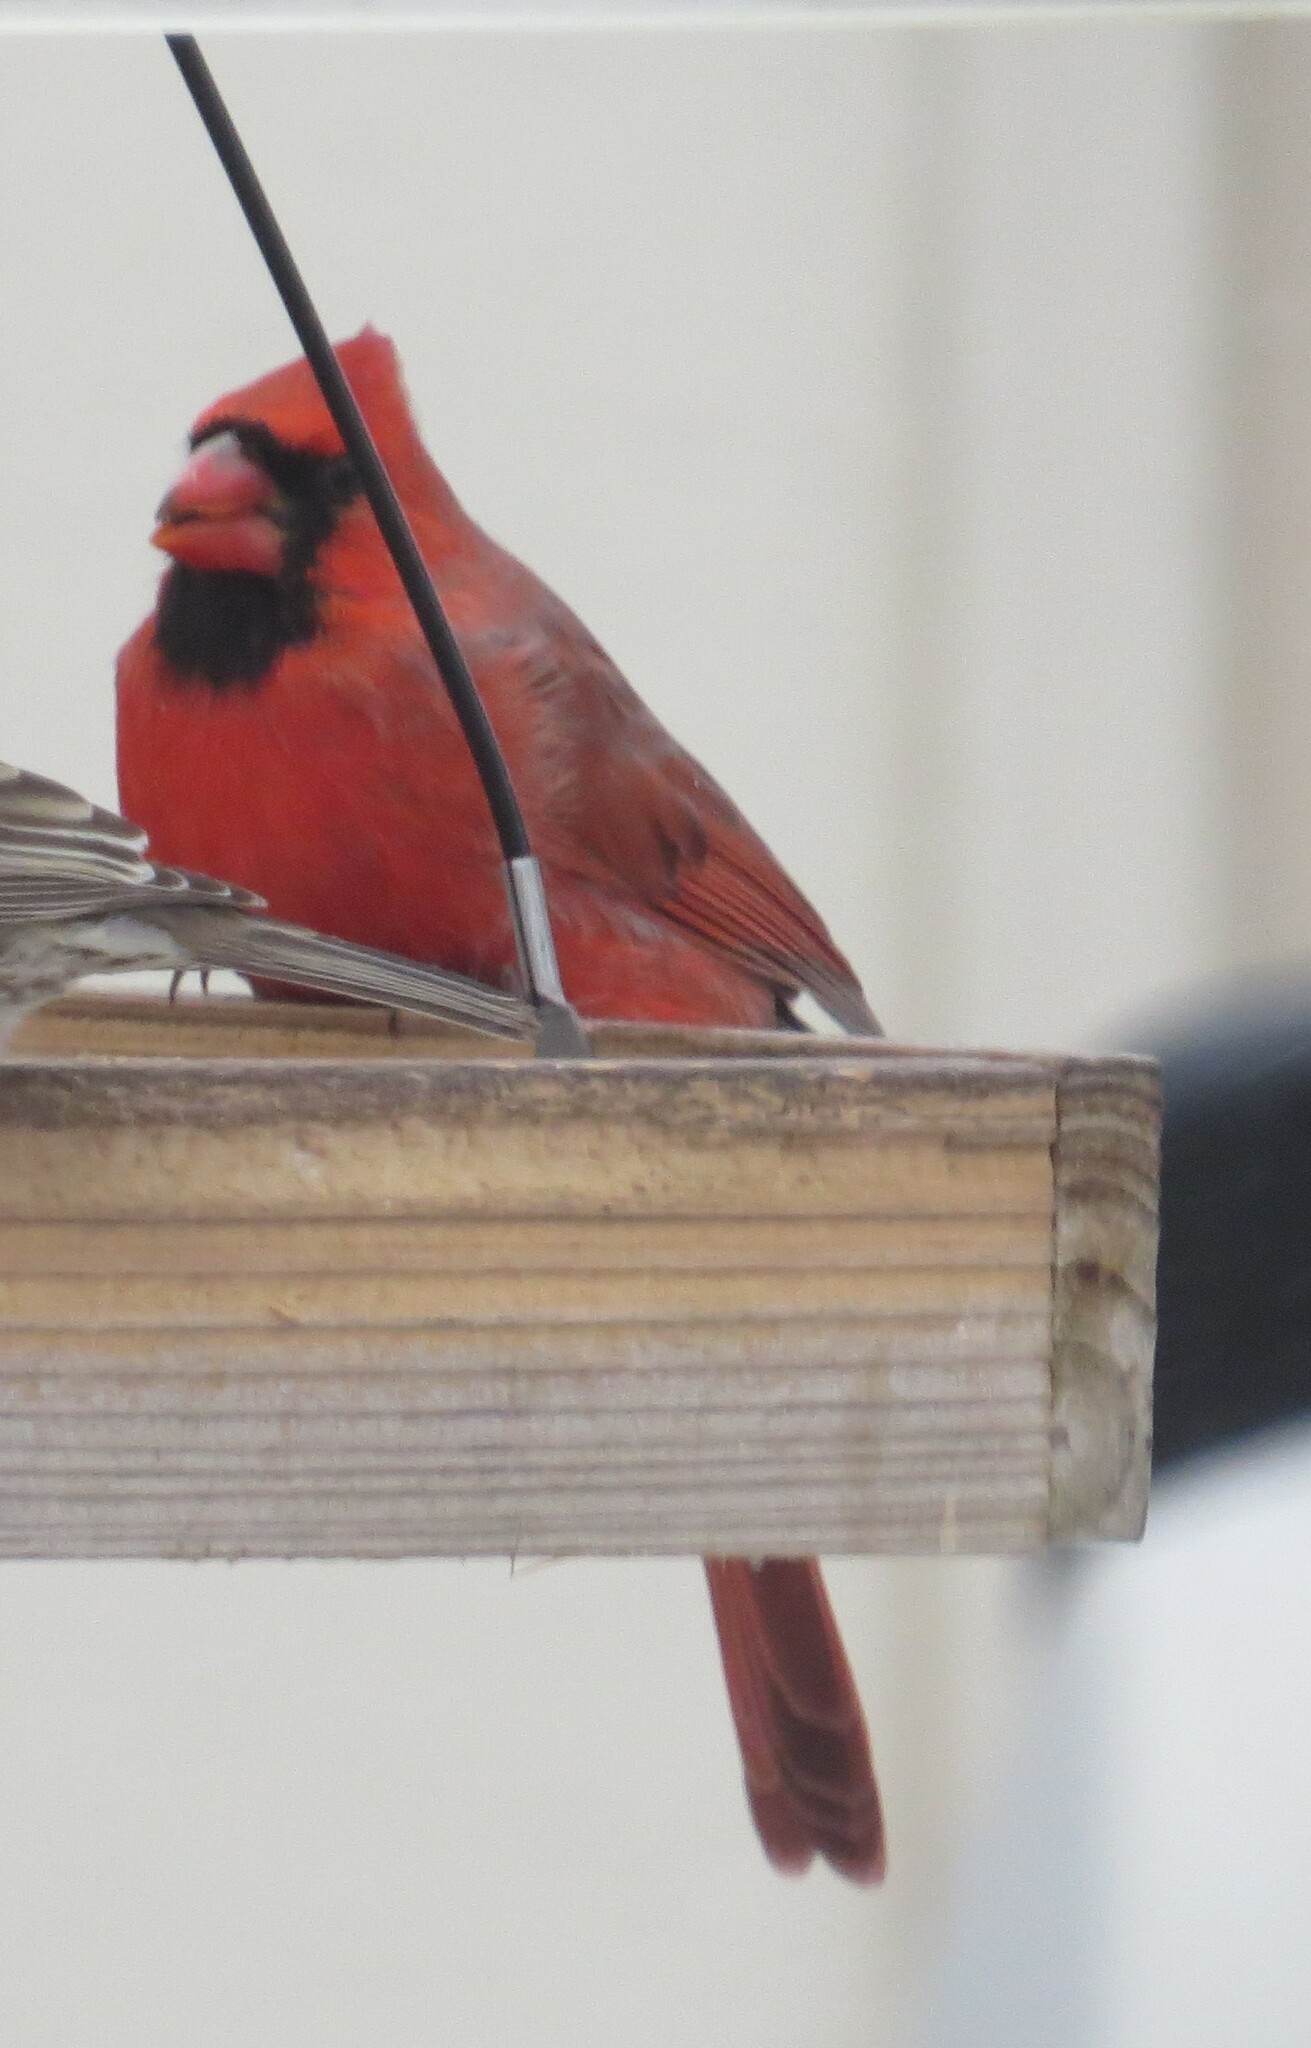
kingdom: Animalia
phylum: Chordata
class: Aves
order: Passeriformes
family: Cardinalidae
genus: Cardinalis
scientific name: Cardinalis cardinalis
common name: Northern cardinal
